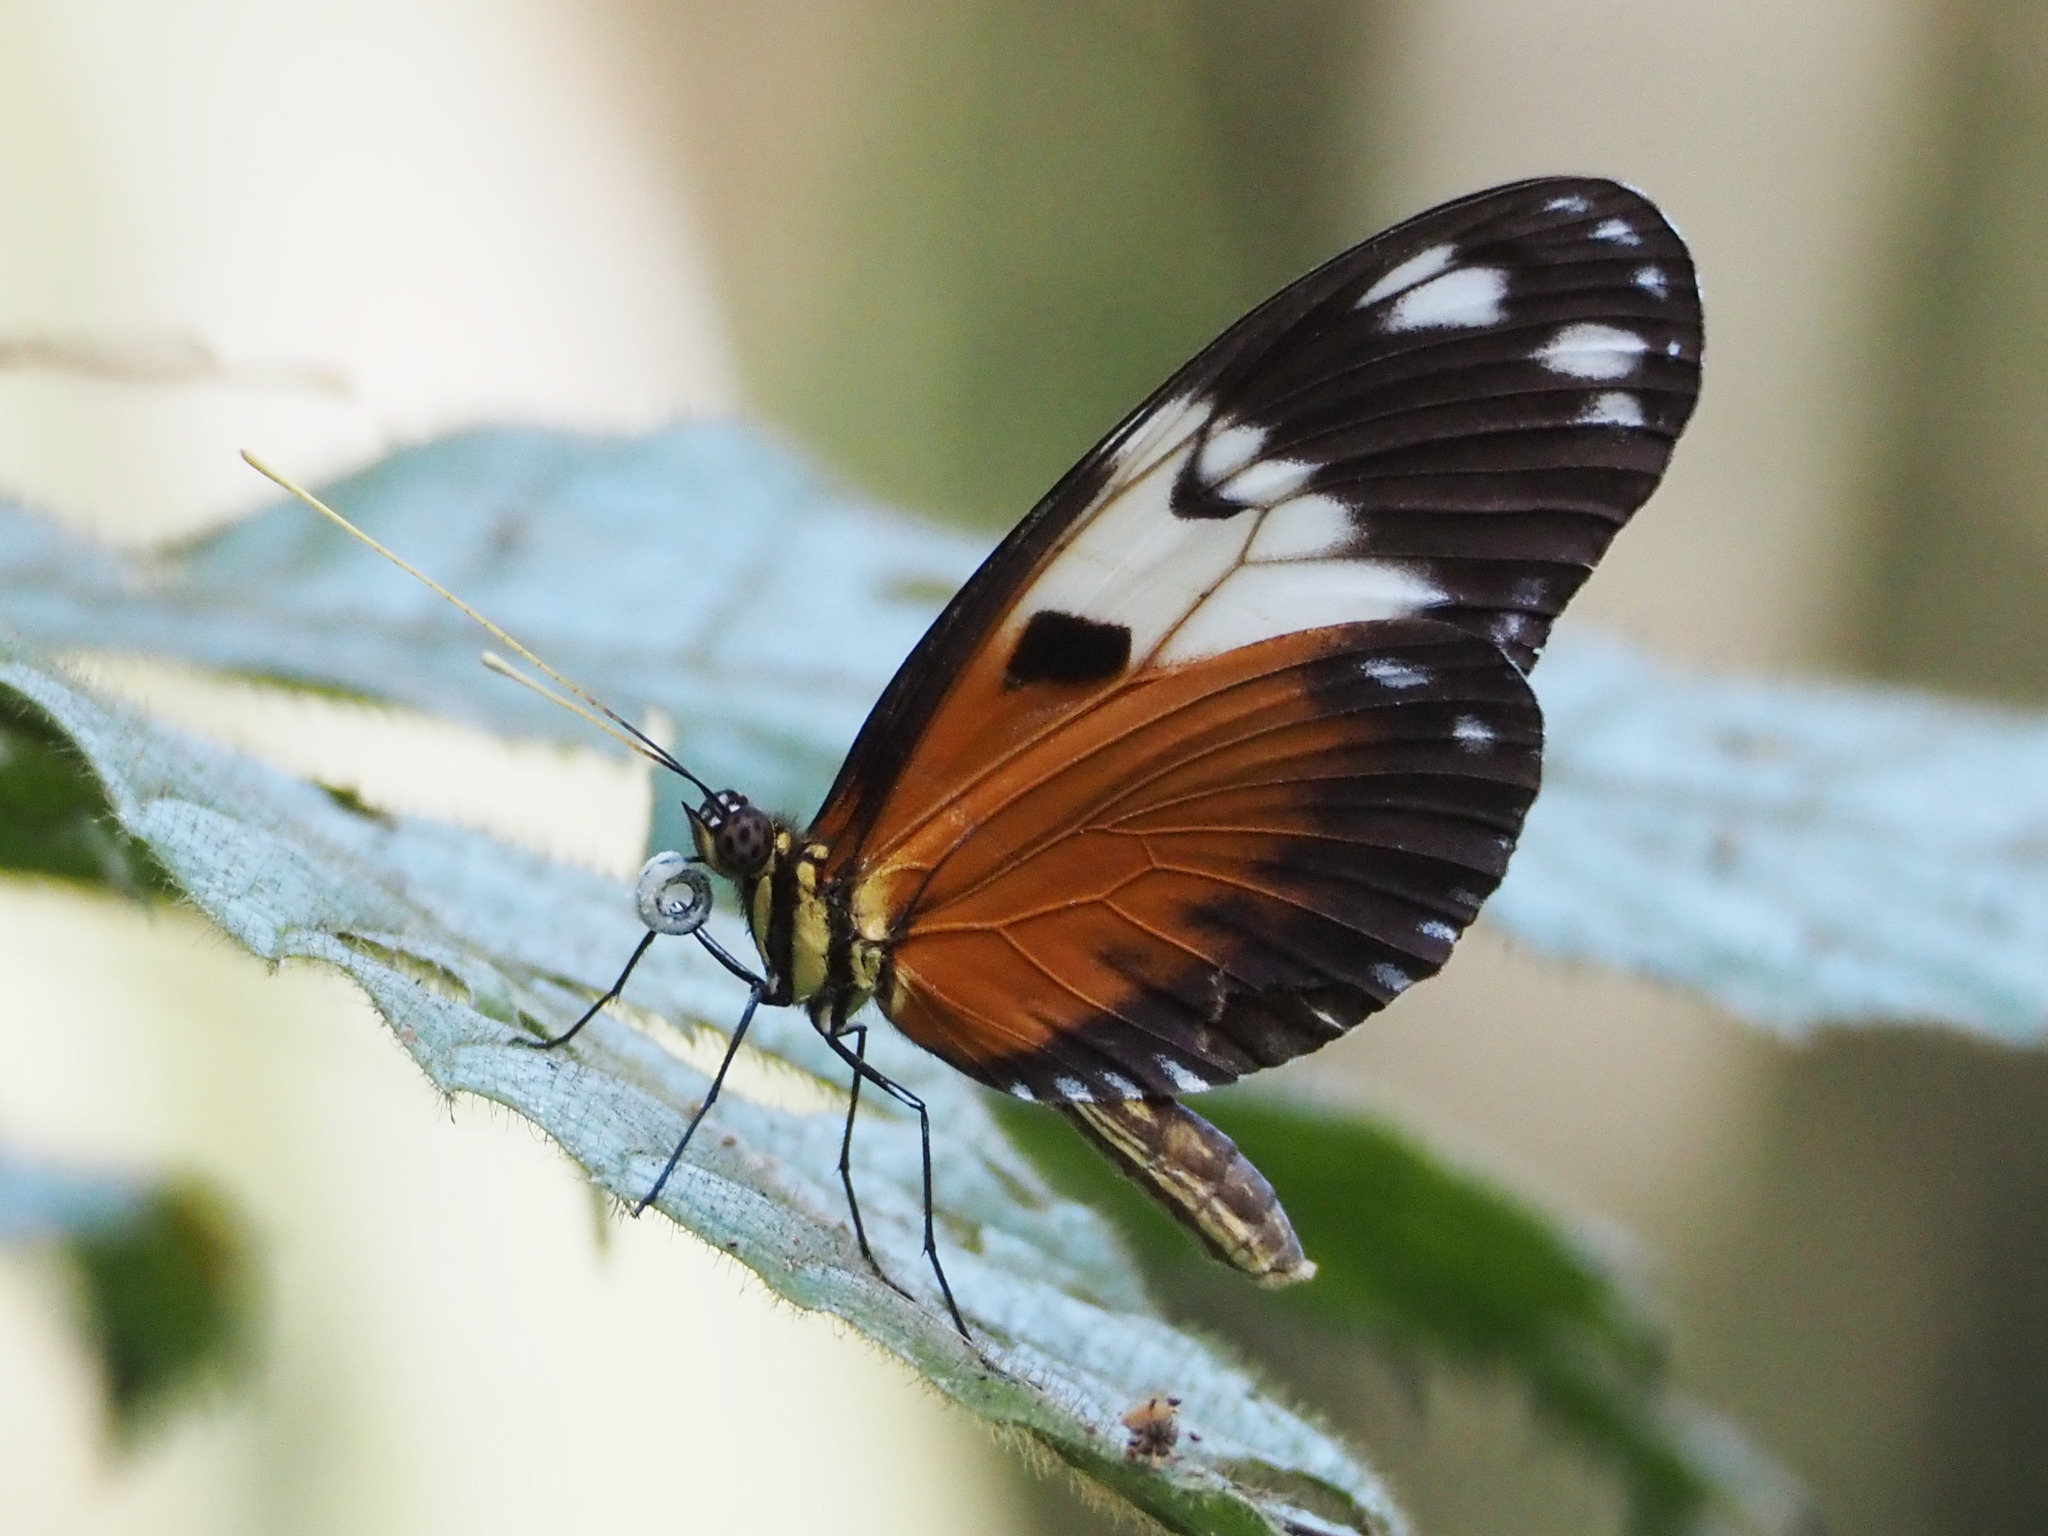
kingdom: Animalia
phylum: Arthropoda
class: Insecta
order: Lepidoptera
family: Nymphalidae
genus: Heliconius
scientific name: Heliconius ismenius
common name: Ismenius tiger
